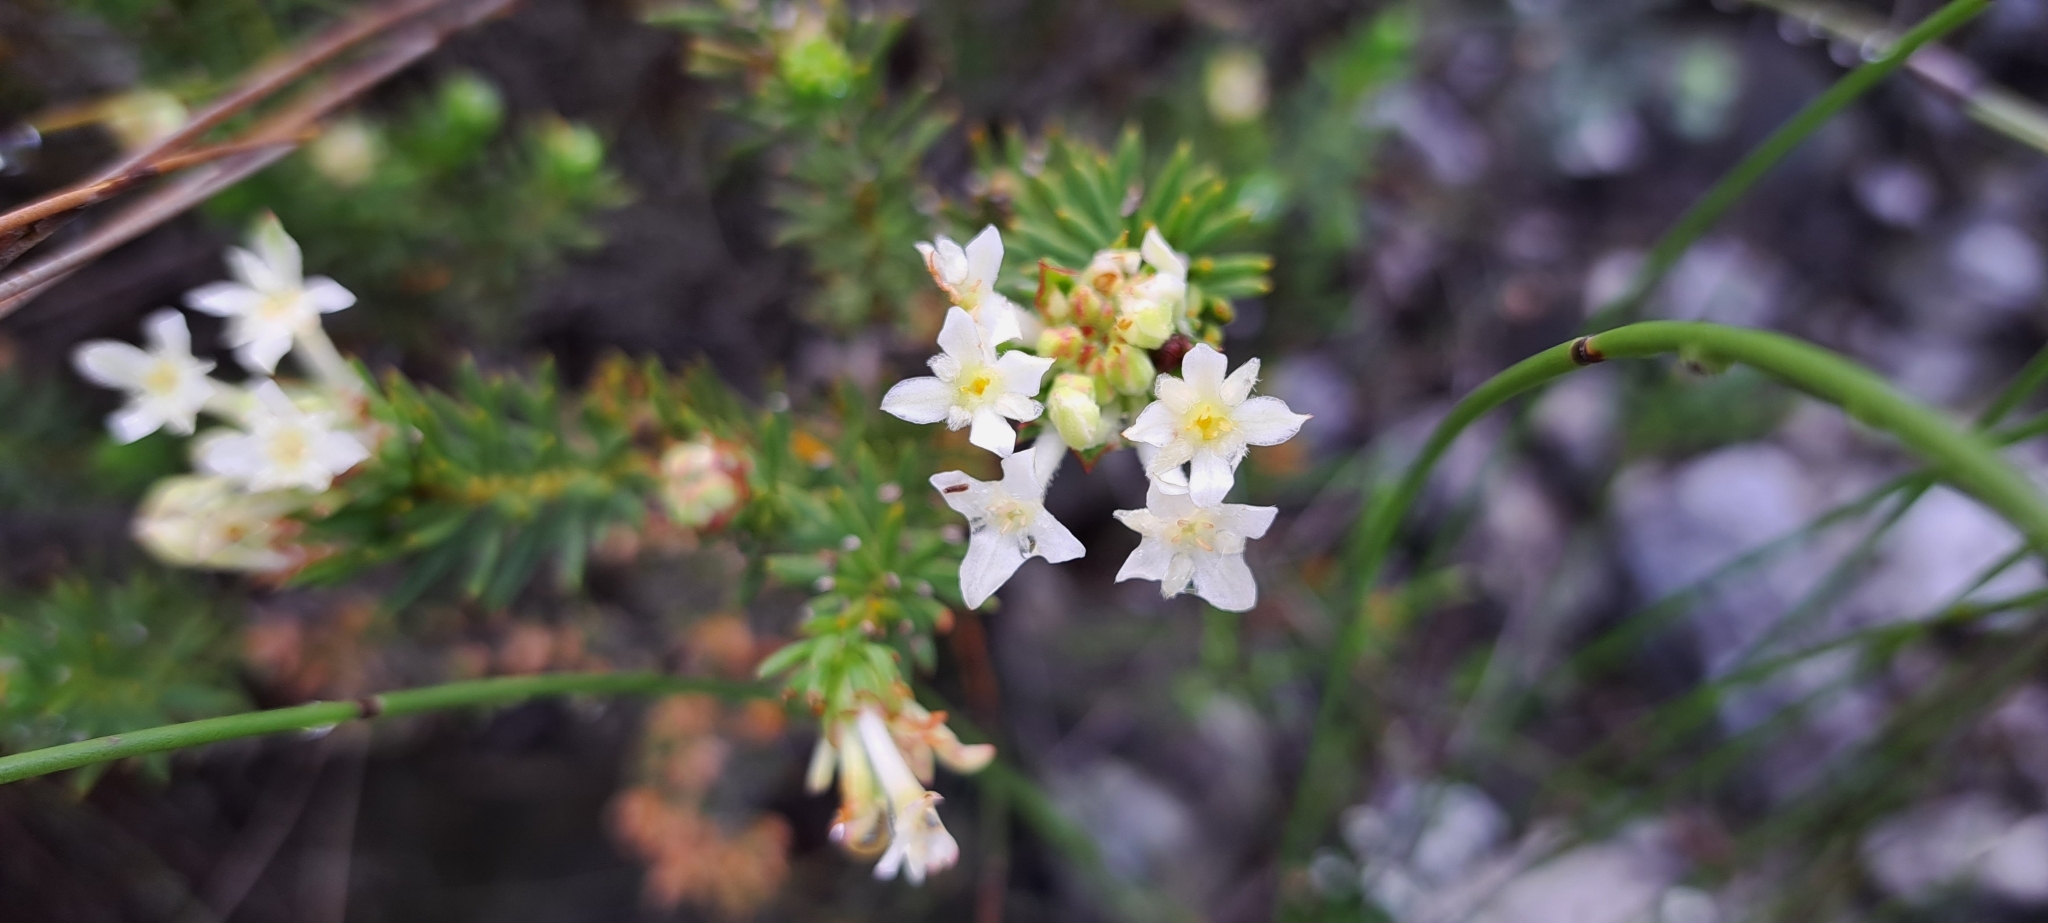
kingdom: Plantae
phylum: Tracheophyta
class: Magnoliopsida
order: Malvales
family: Thymelaeaceae
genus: Gnidia
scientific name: Gnidia pinifolia
